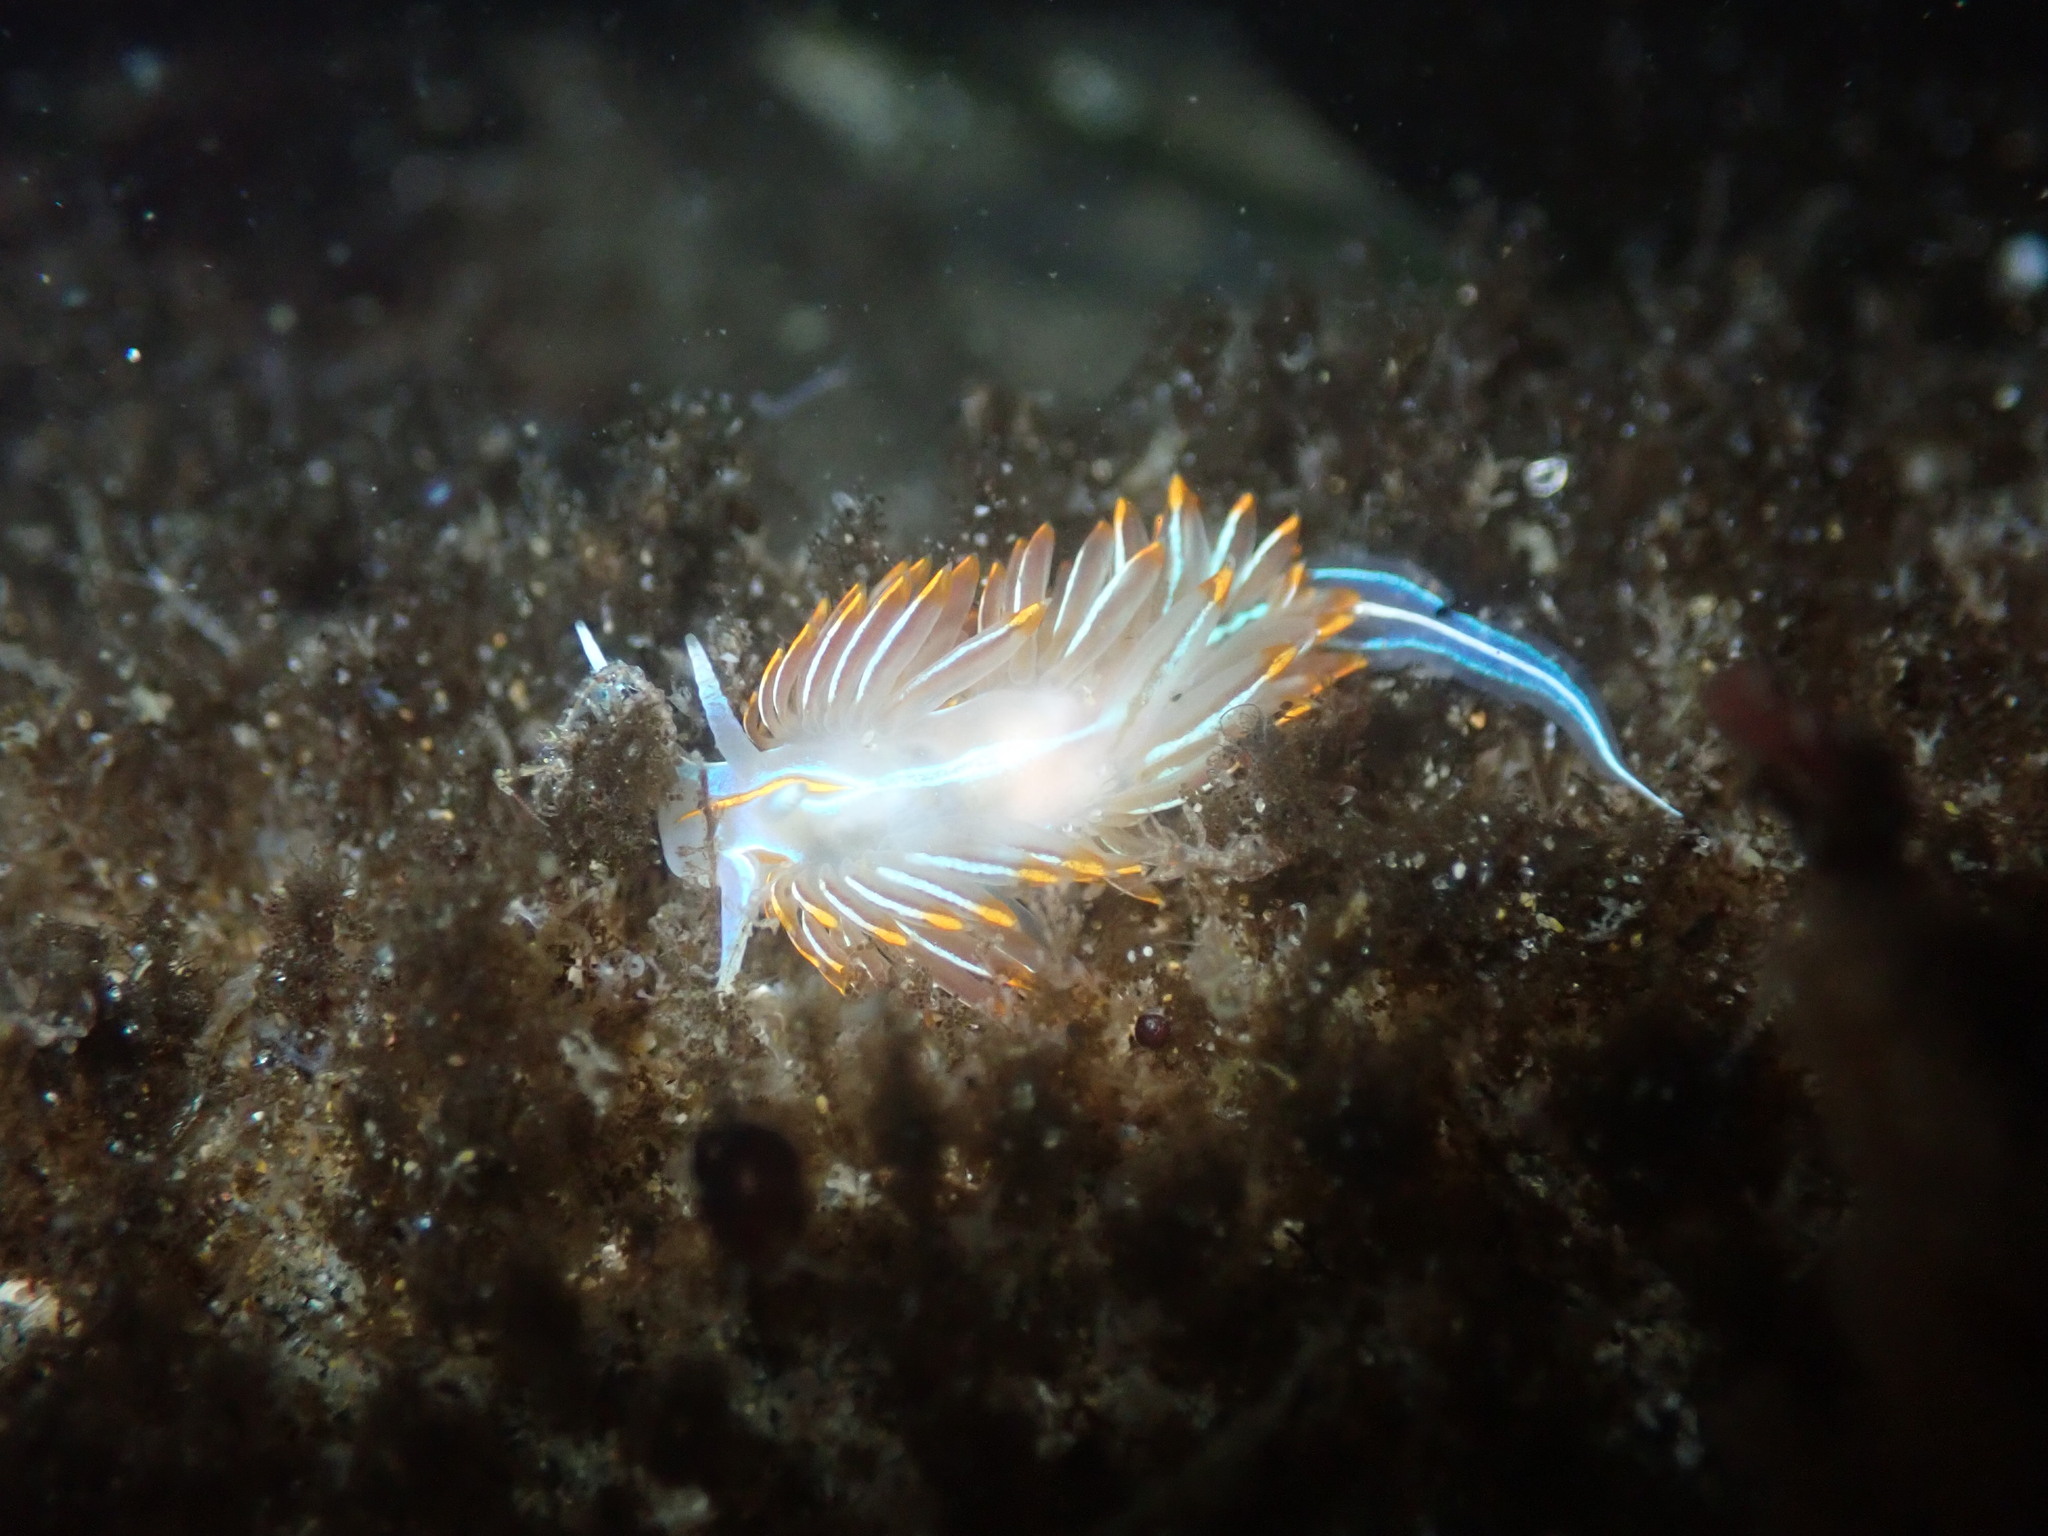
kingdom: Animalia
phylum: Mollusca
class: Gastropoda
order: Nudibranchia
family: Myrrhinidae
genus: Hermissenda
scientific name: Hermissenda crassicornis
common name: Hermissenda
